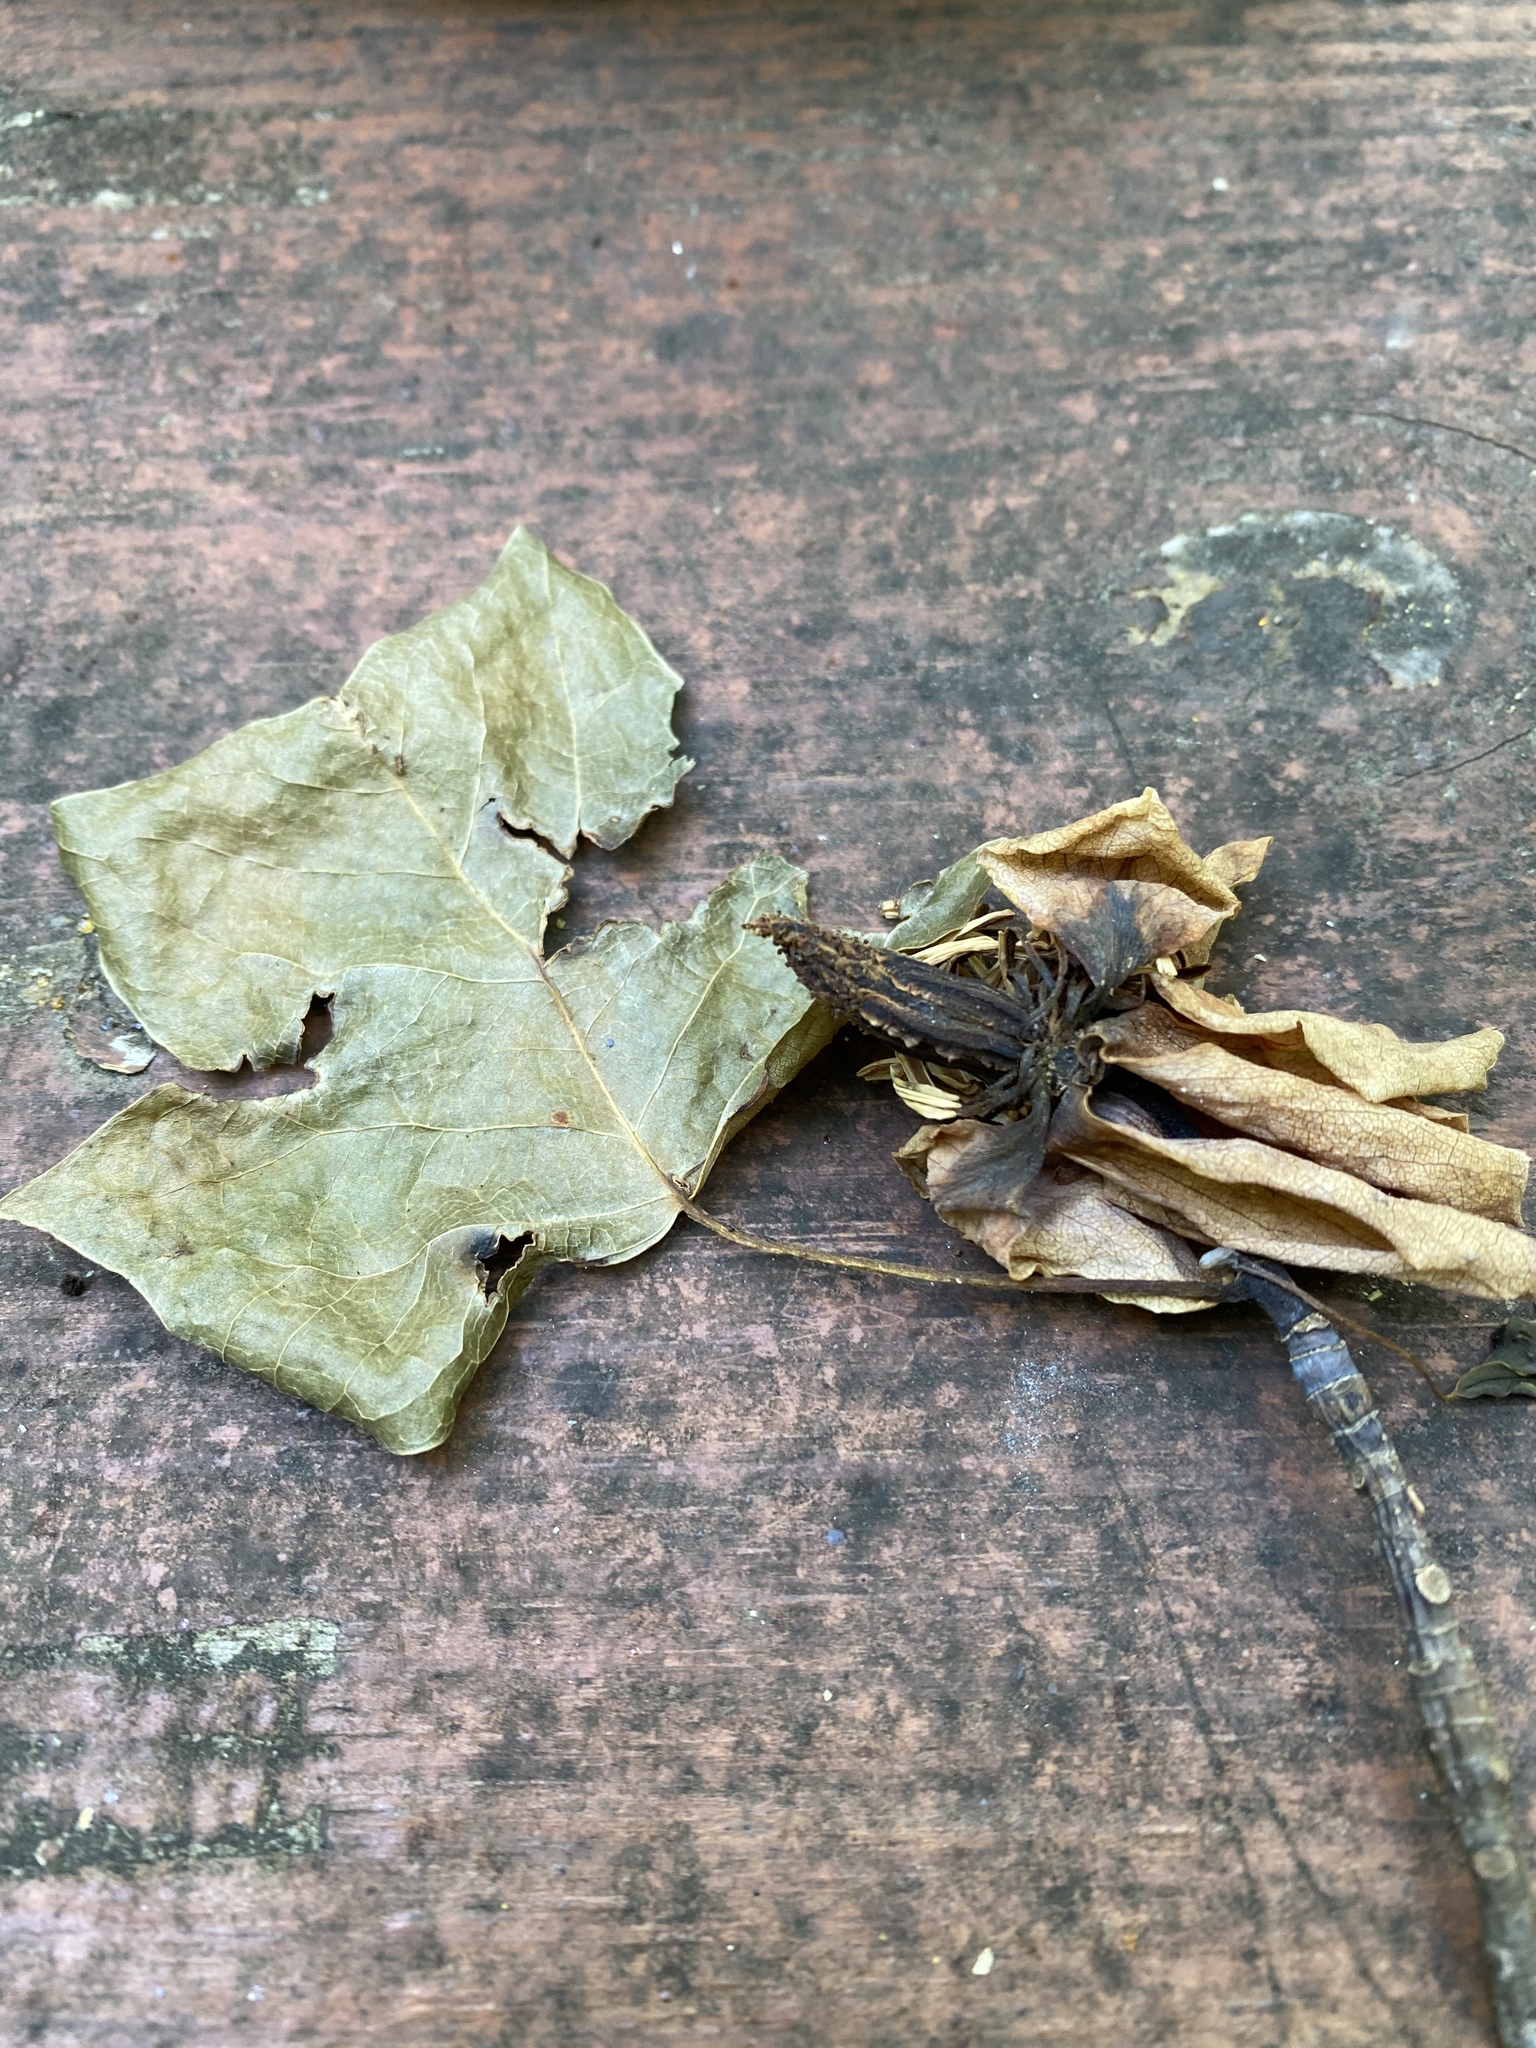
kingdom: Plantae
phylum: Tracheophyta
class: Magnoliopsida
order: Magnoliales
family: Magnoliaceae
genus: Liriodendron
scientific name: Liriodendron tulipifera
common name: Tulip tree
